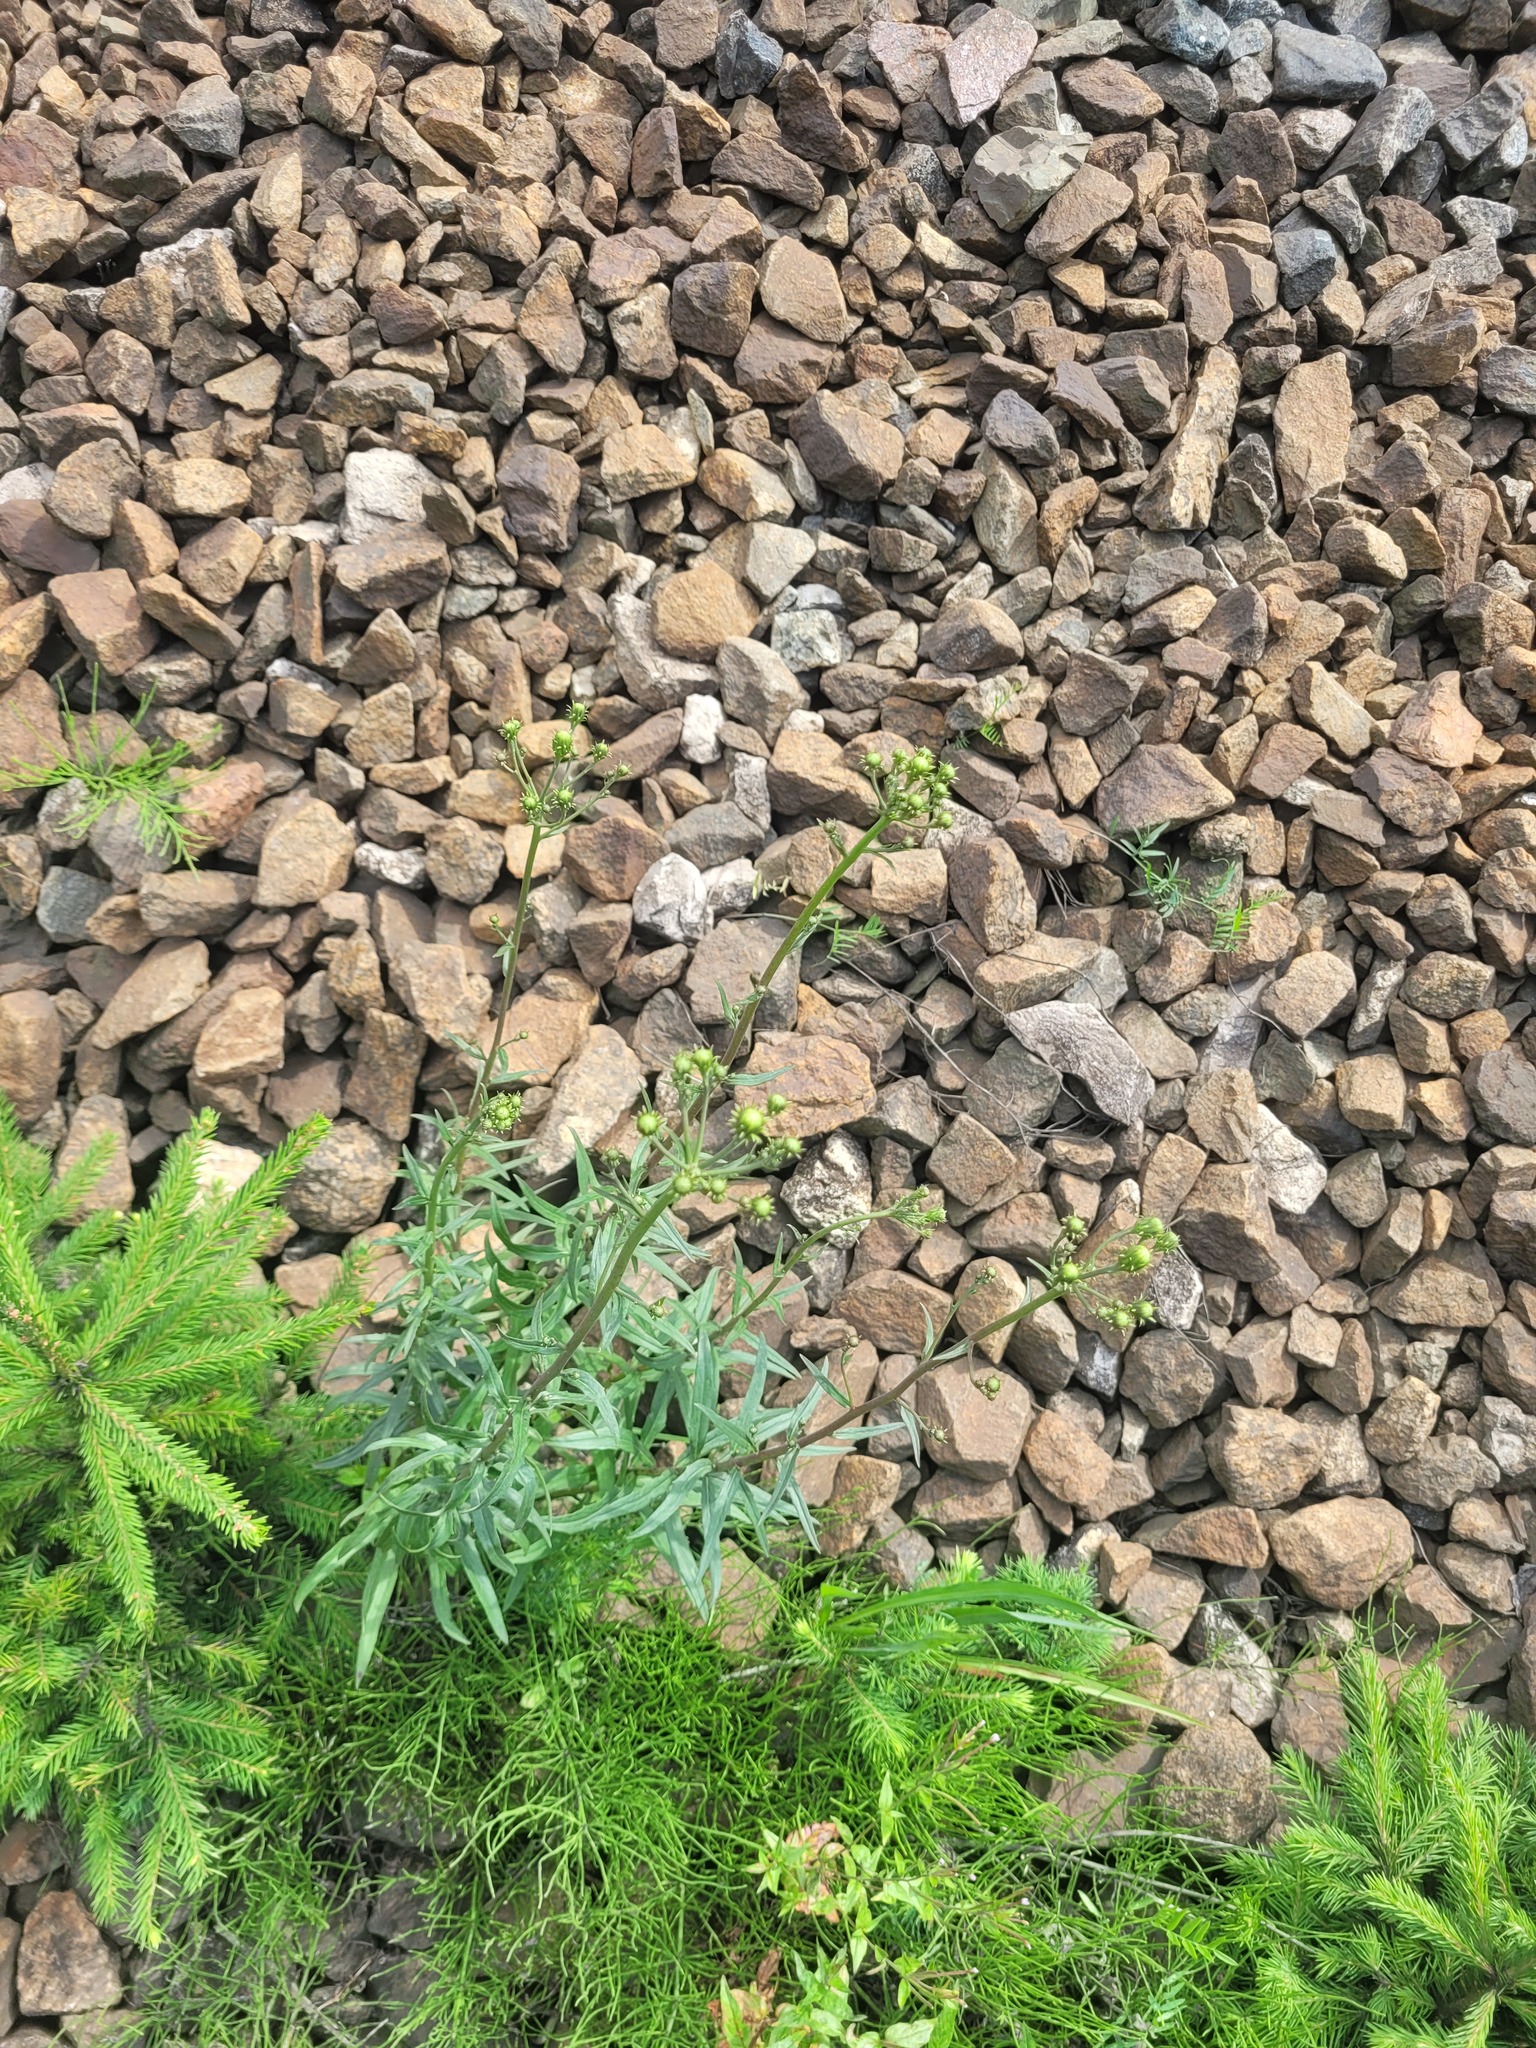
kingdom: Plantae
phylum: Tracheophyta
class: Magnoliopsida
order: Asterales
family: Asteraceae
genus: Hieracium
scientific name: Hieracium umbellatum
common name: Northern hawkweed
